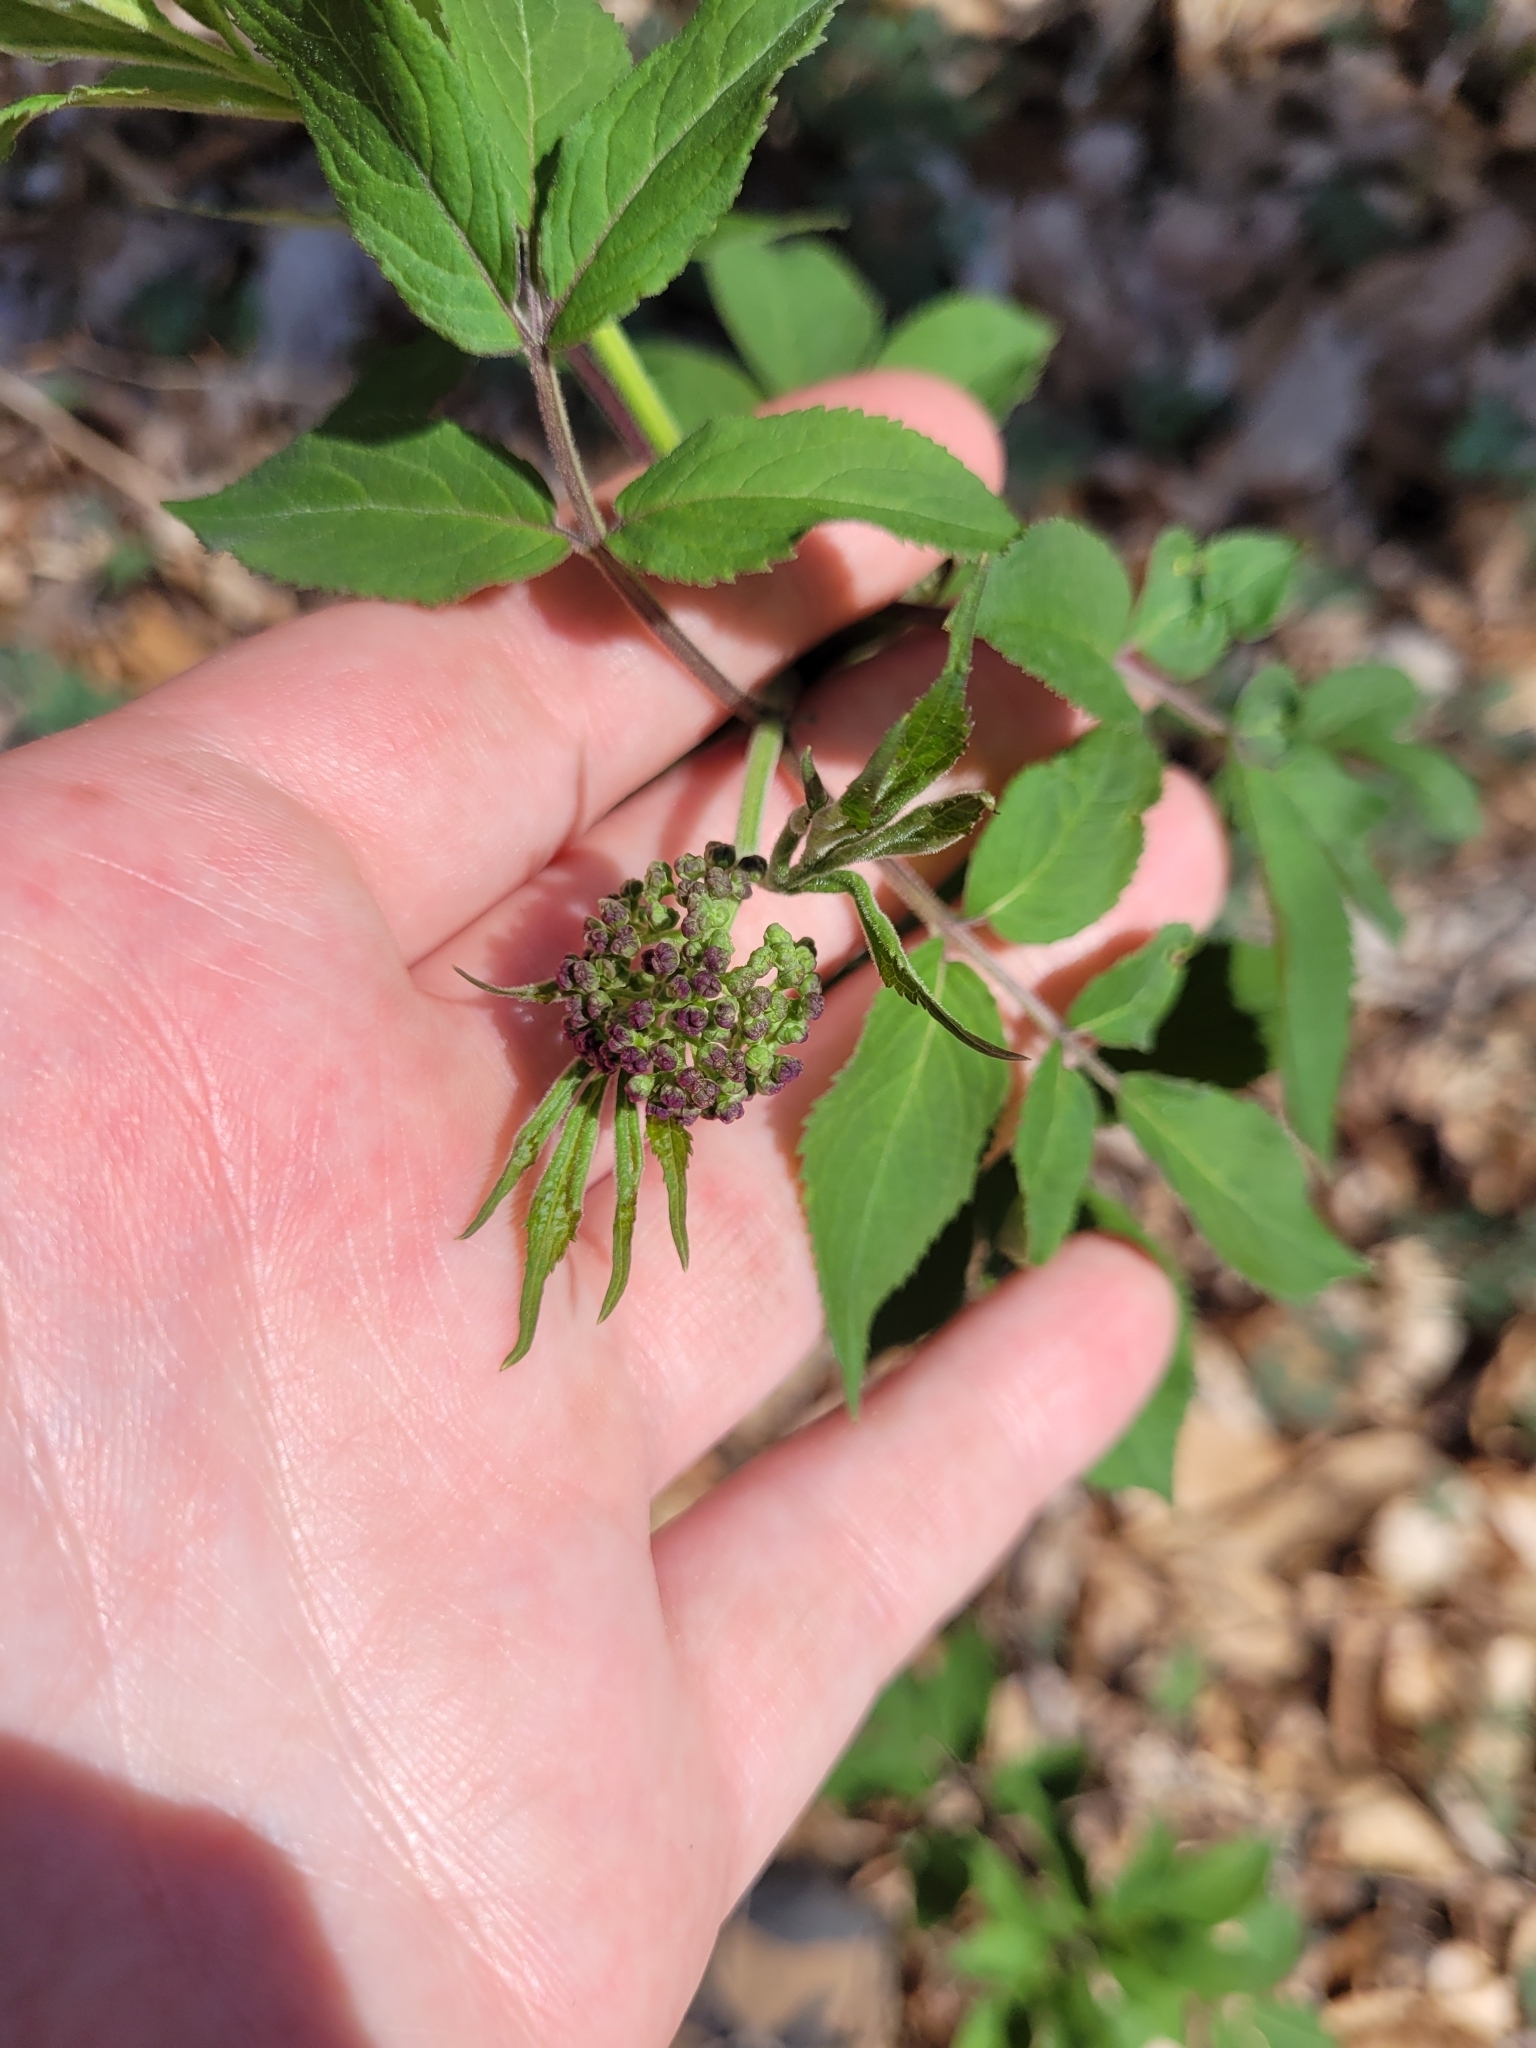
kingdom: Plantae
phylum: Tracheophyta
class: Magnoliopsida
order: Dipsacales
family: Viburnaceae
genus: Sambucus
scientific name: Sambucus racemosa
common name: Red-berried elder
